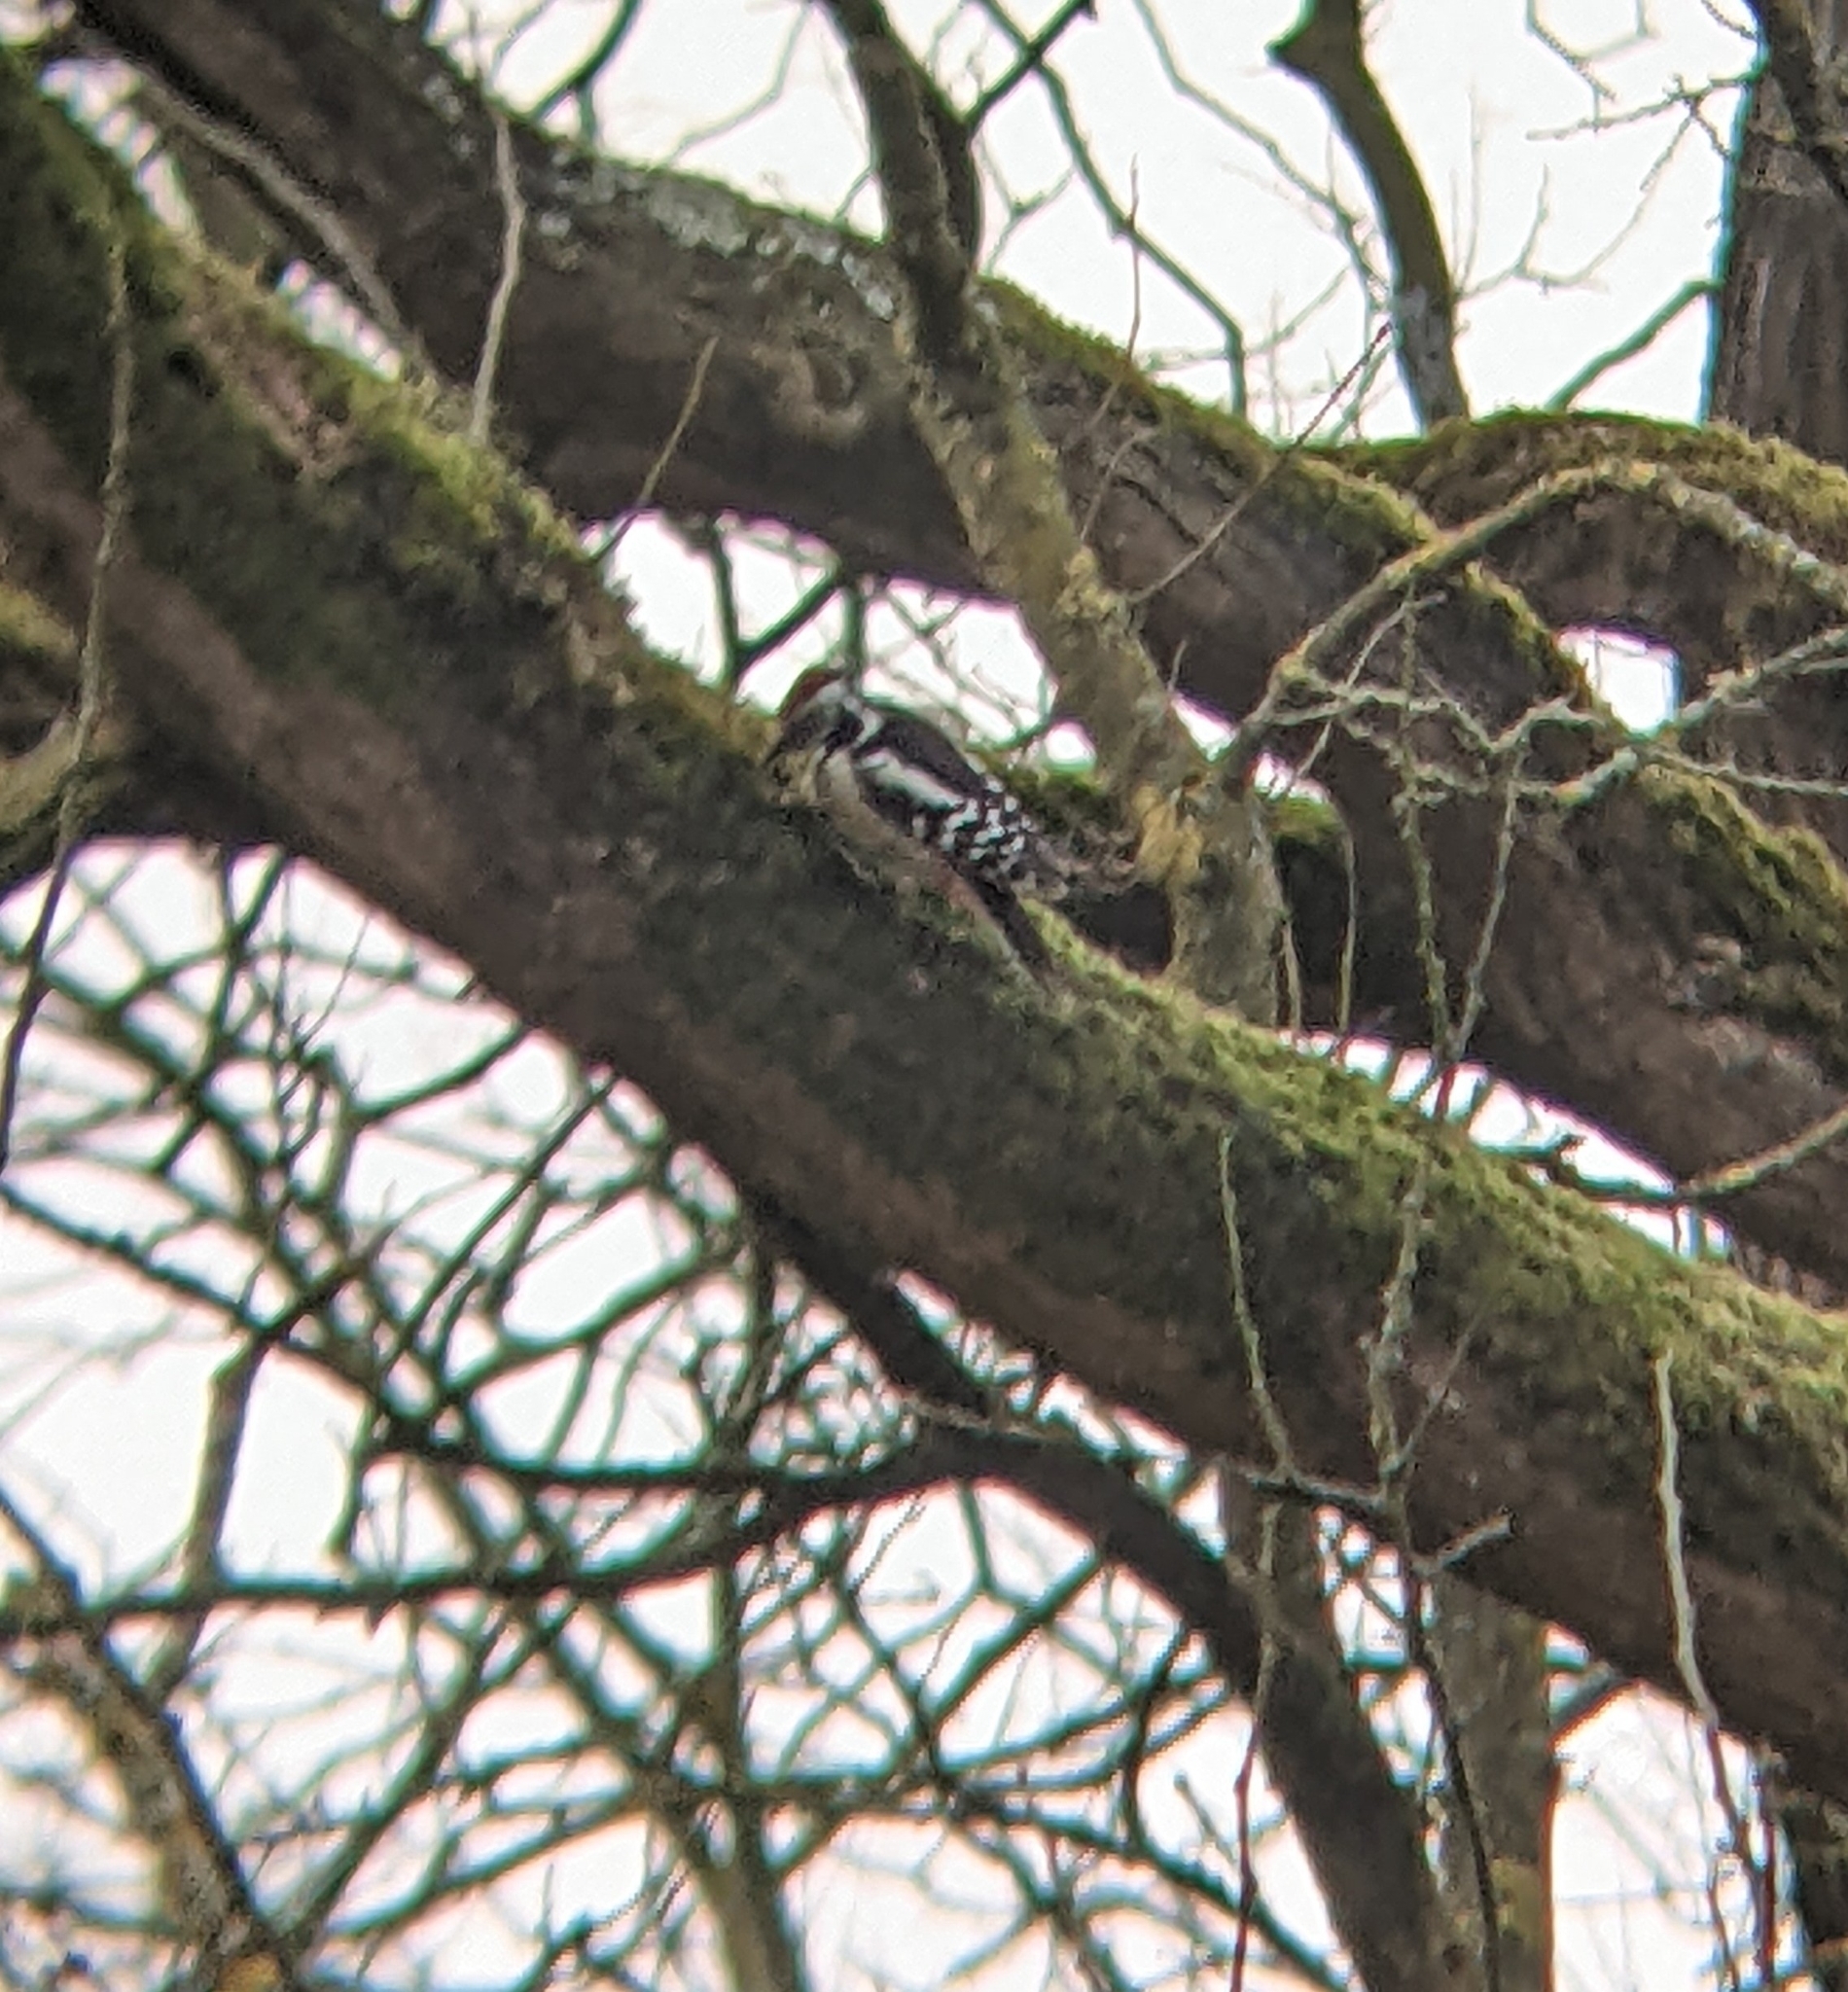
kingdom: Animalia
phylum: Chordata
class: Aves
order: Piciformes
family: Picidae
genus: Dendrocoptes
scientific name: Dendrocoptes medius
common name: Middle spotted woodpecker
